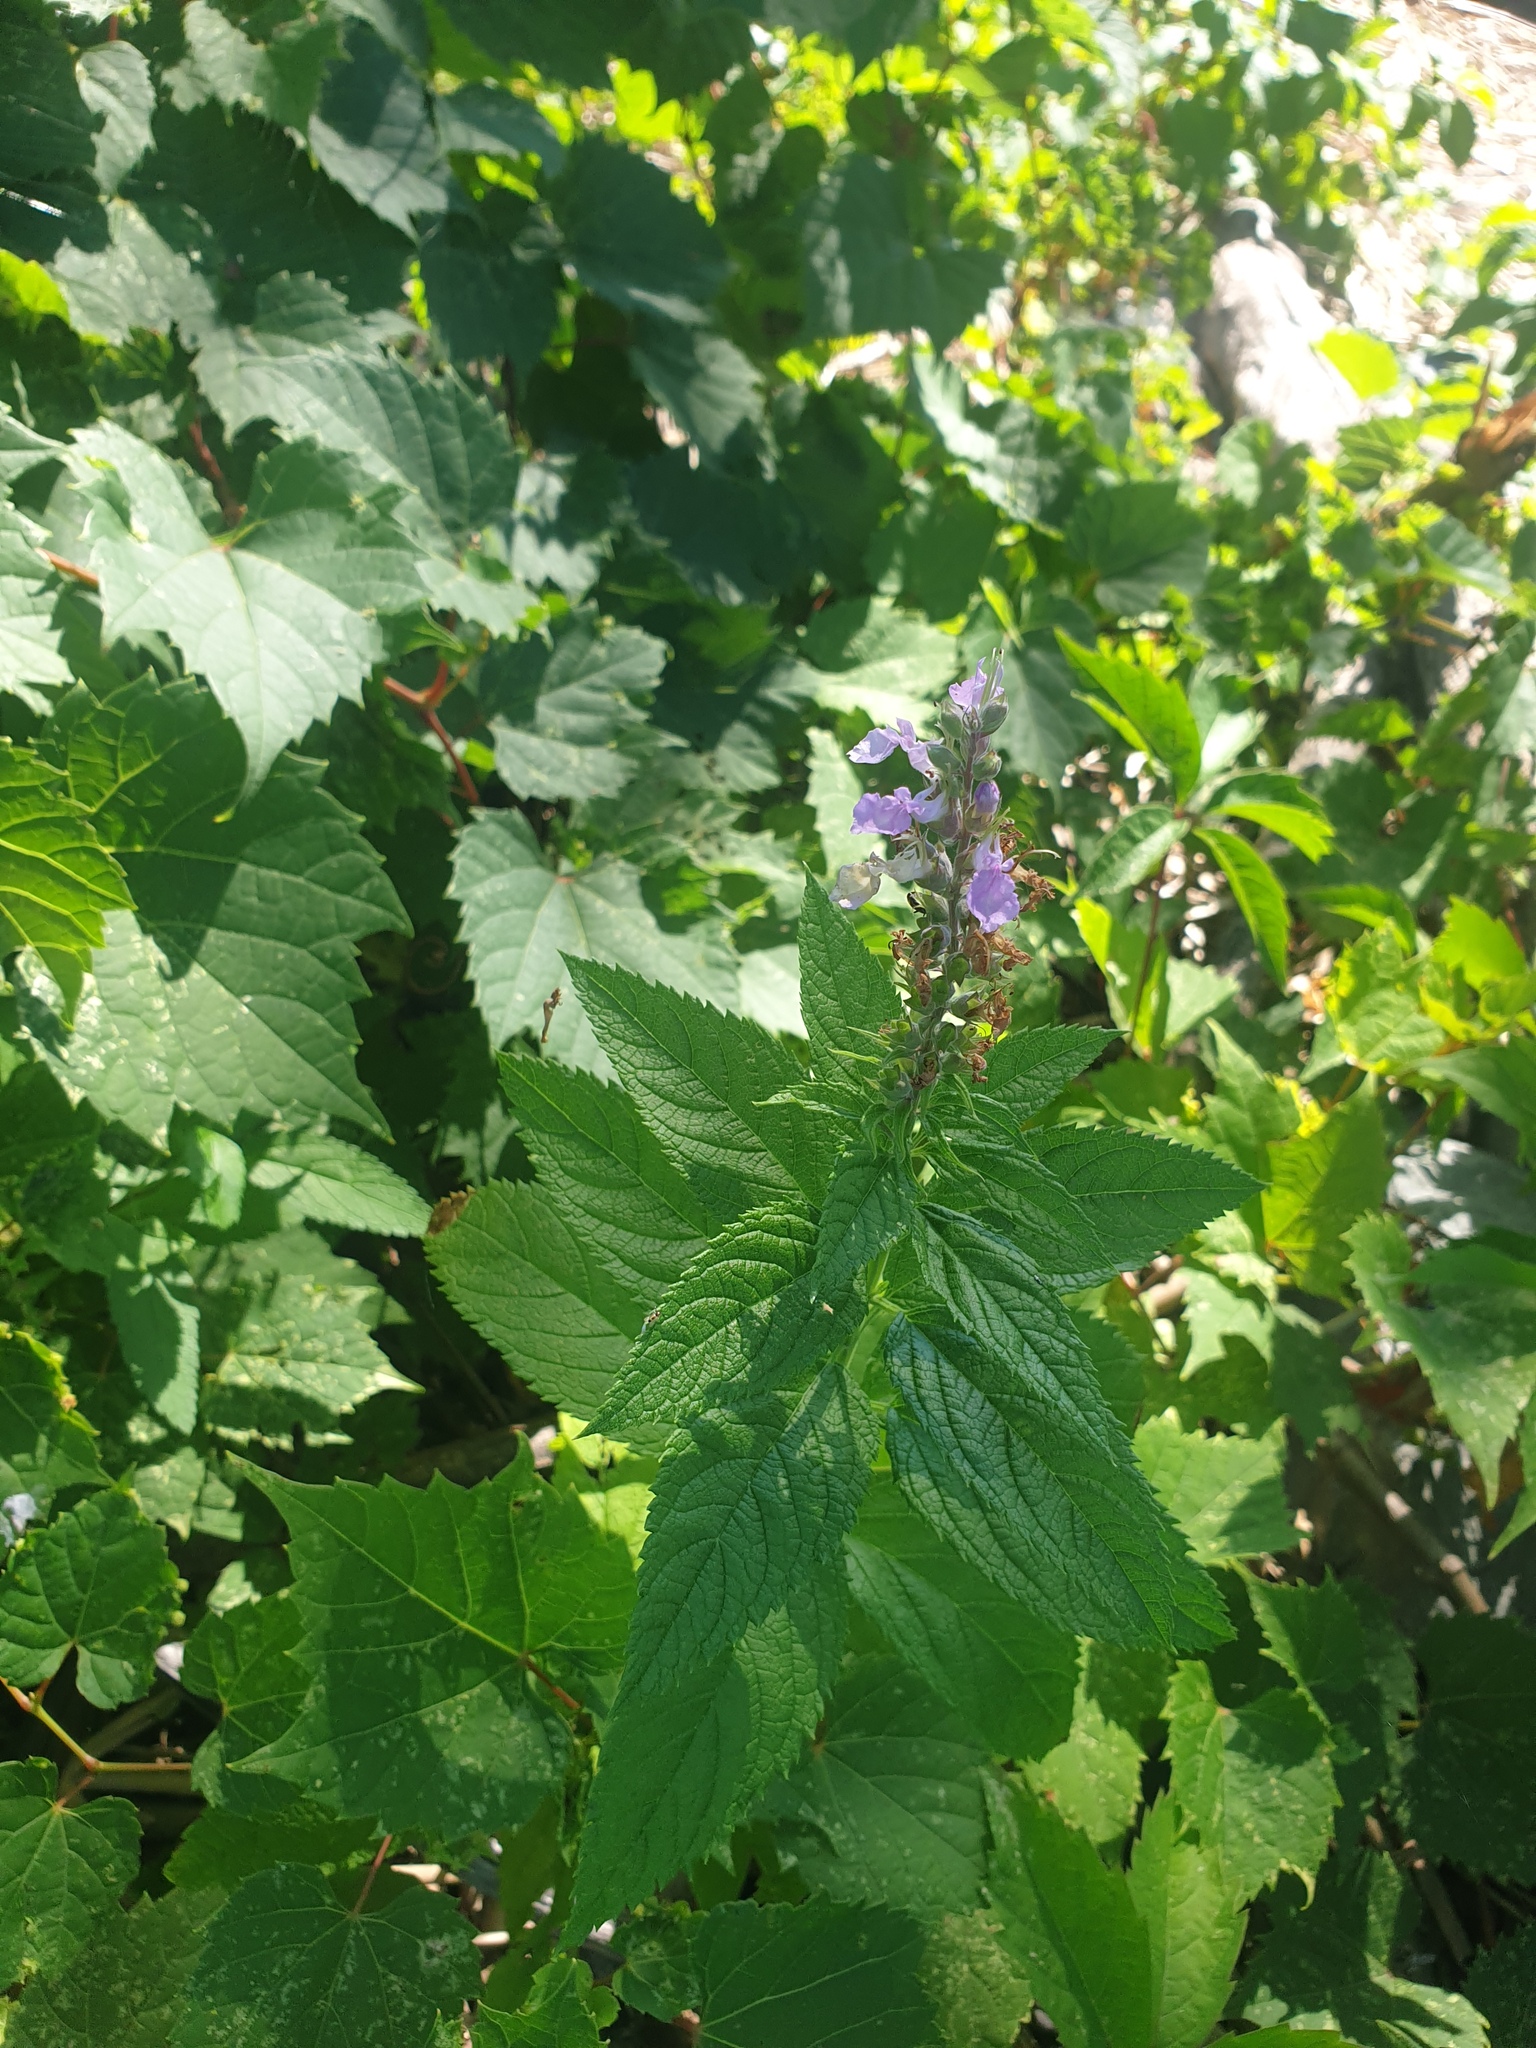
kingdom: Plantae
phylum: Tracheophyta
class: Magnoliopsida
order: Lamiales
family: Lamiaceae
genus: Teucrium
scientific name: Teucrium canadense
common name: American germander
